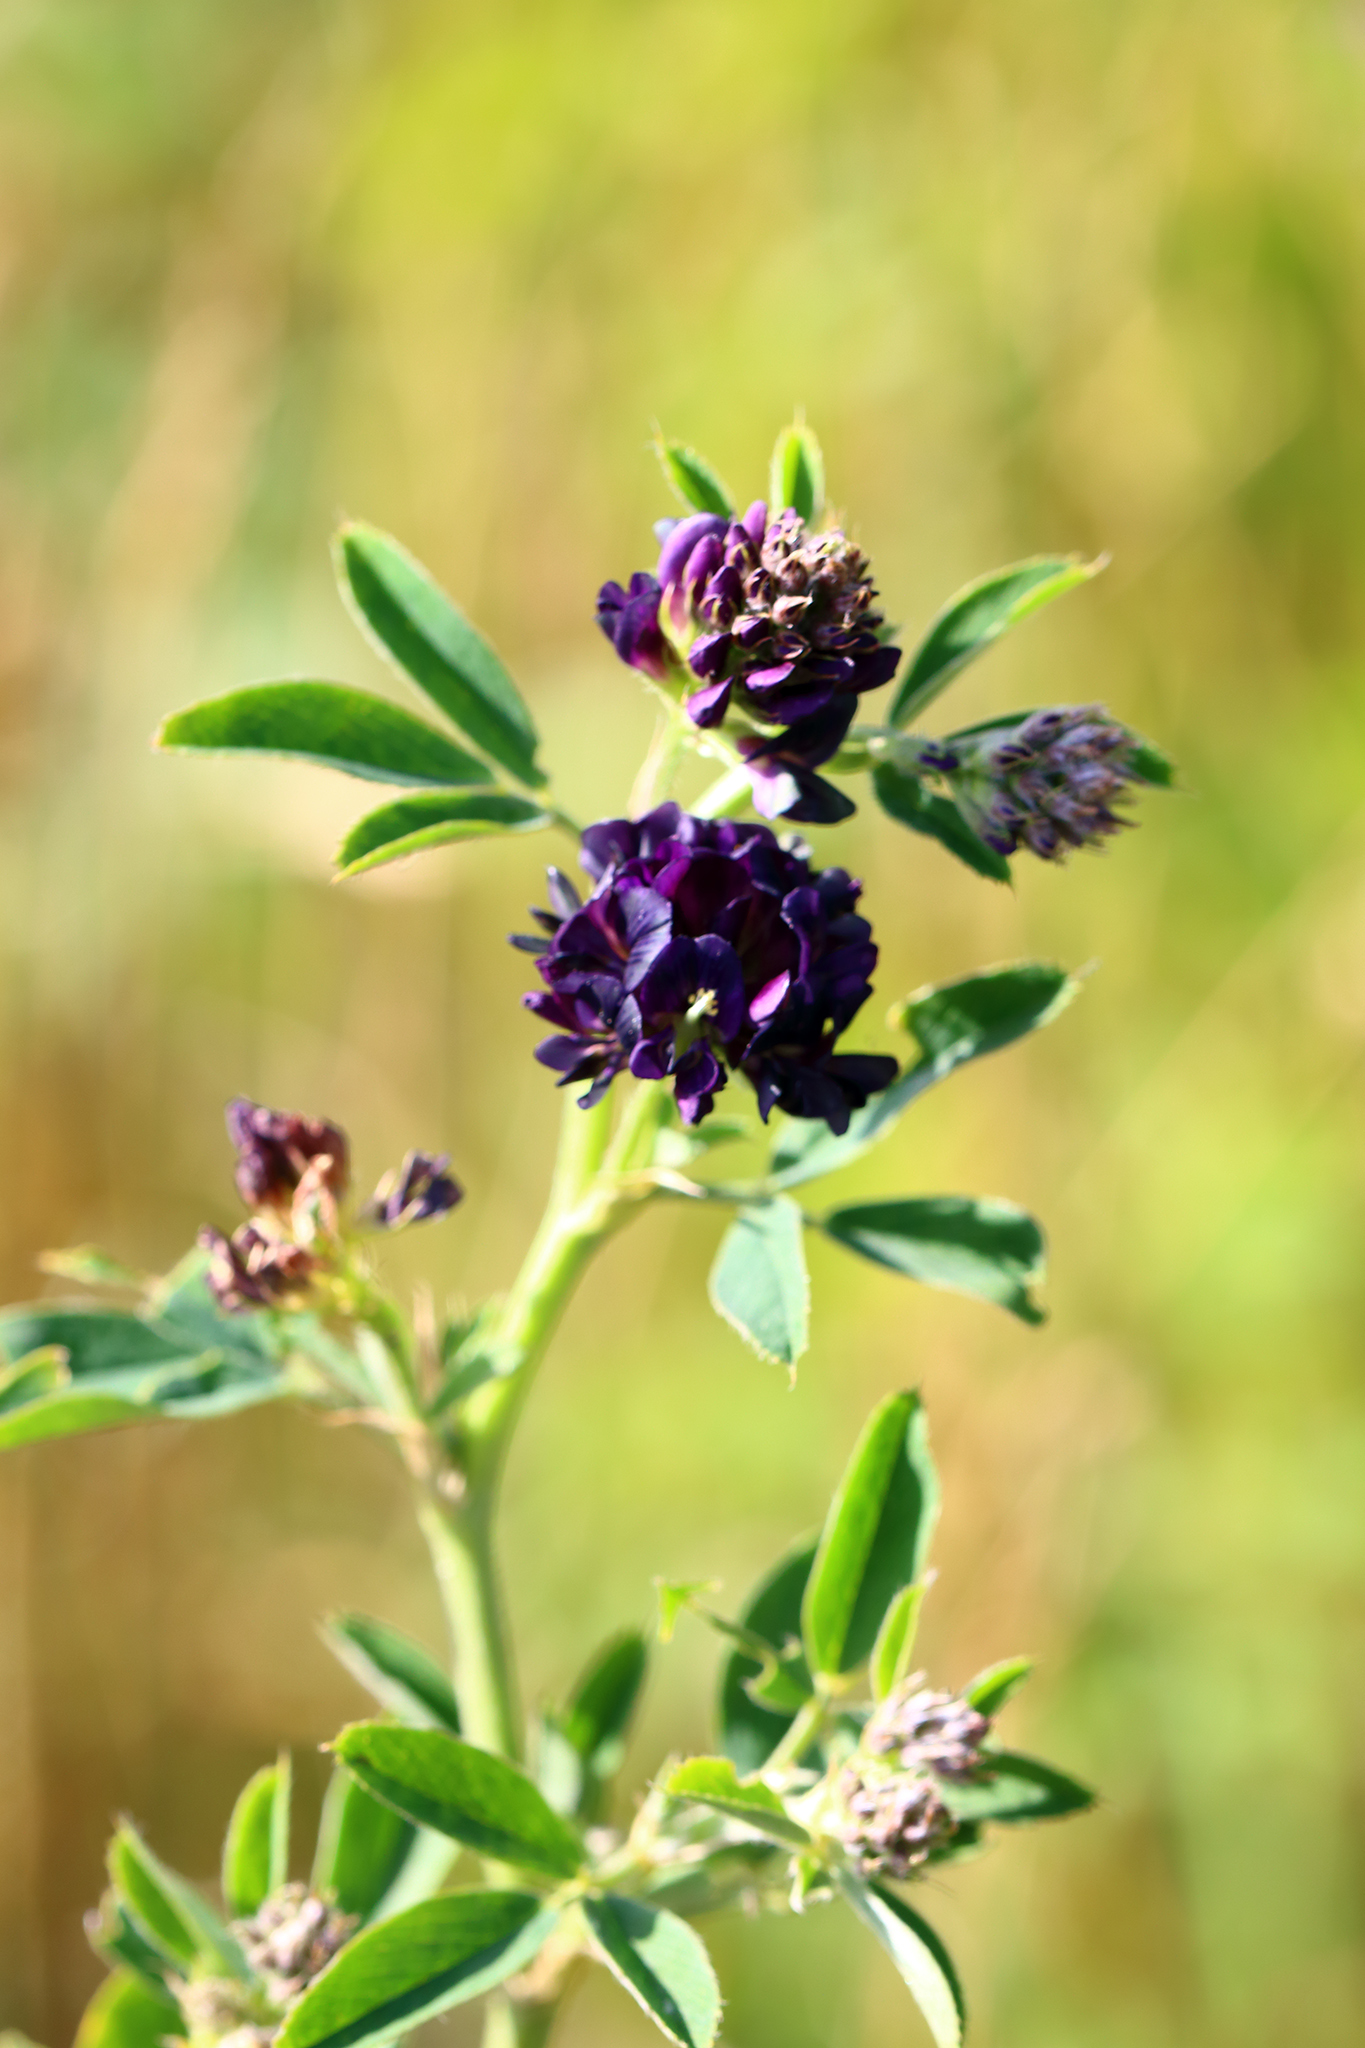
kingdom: Plantae
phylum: Tracheophyta
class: Magnoliopsida
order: Fabales
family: Fabaceae
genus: Medicago
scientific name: Medicago sativa
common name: Alfalfa
